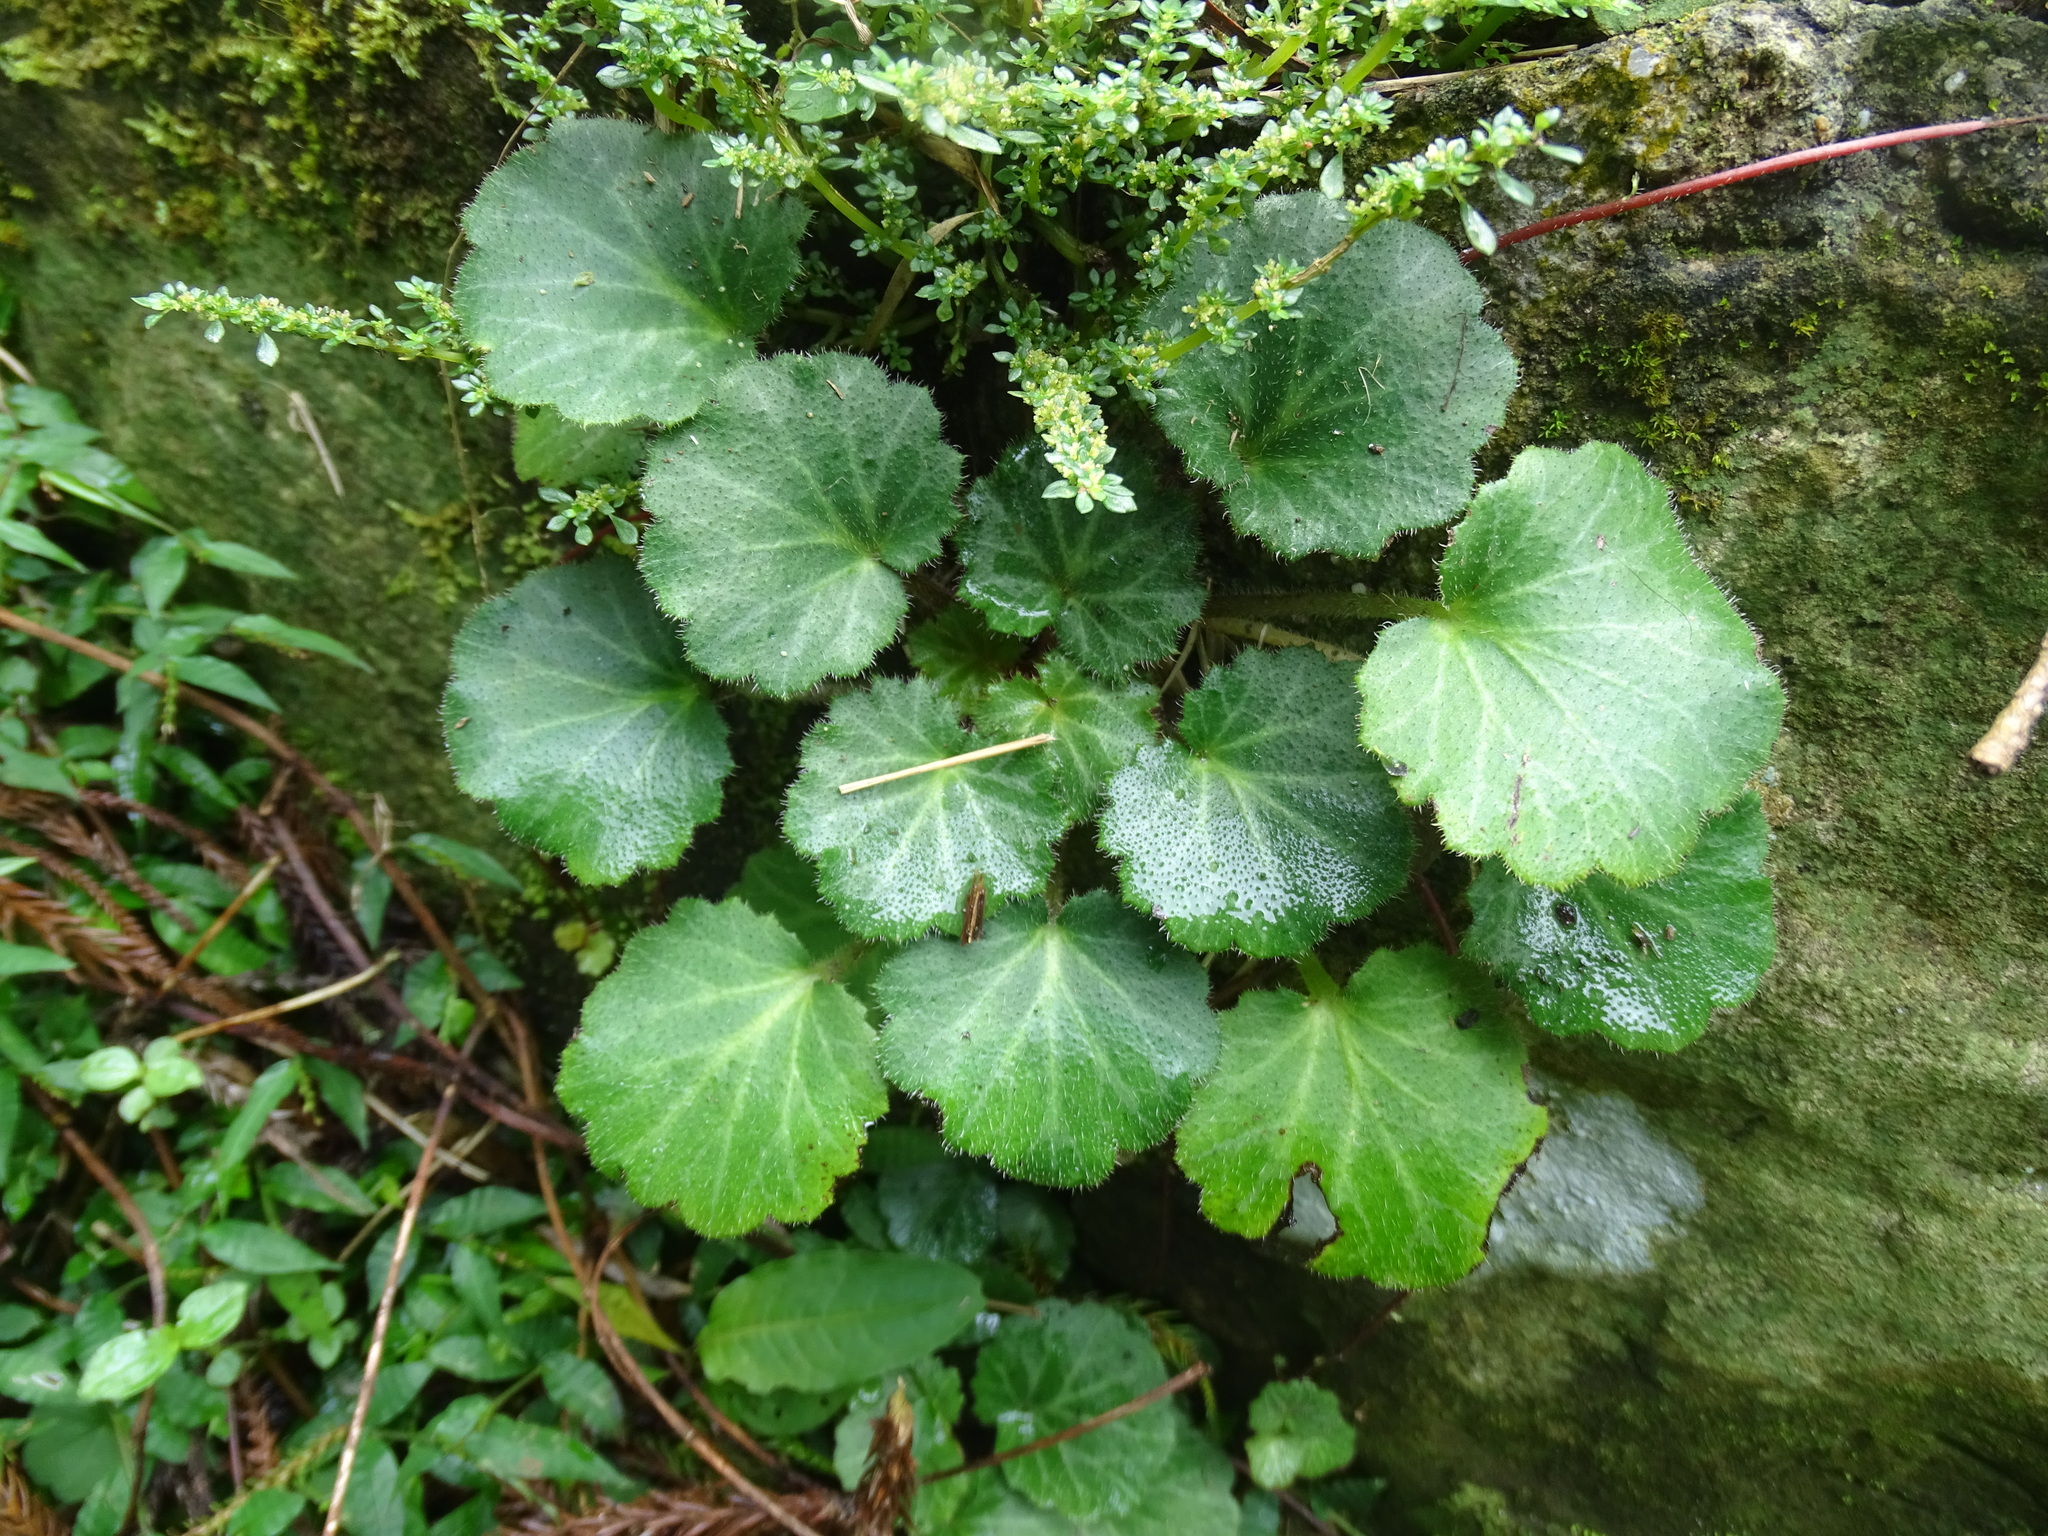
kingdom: Plantae
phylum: Tracheophyta
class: Magnoliopsida
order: Saxifragales
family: Saxifragaceae
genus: Saxifraga
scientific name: Saxifraga stolonifera
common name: Creeping saxifrage
